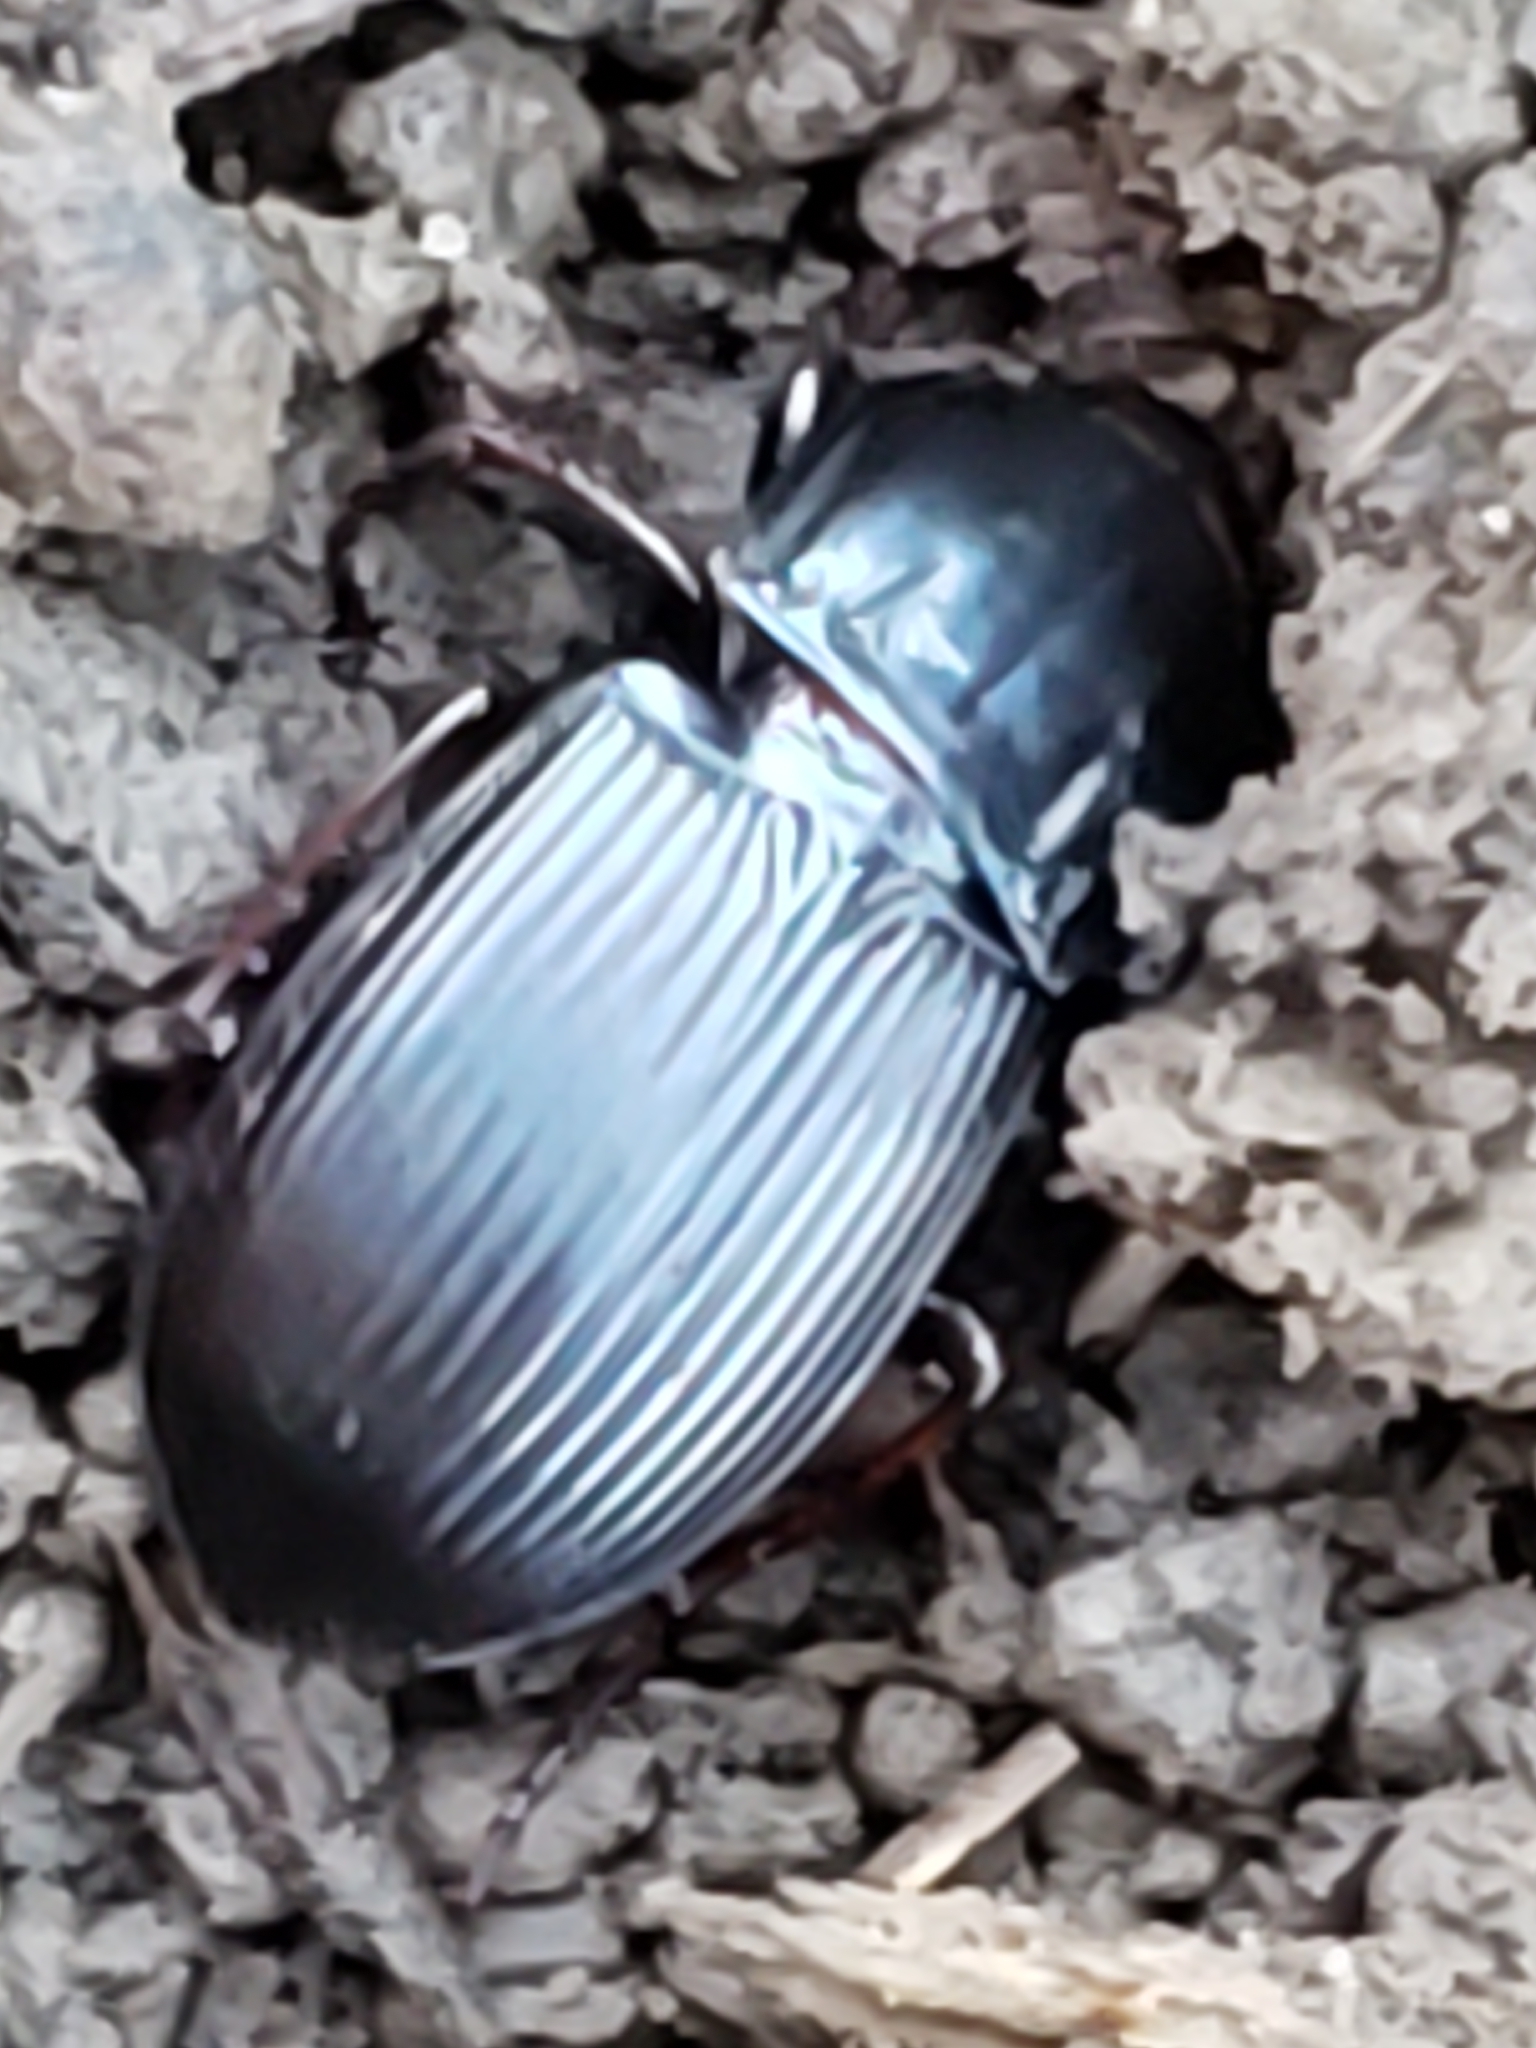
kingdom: Animalia
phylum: Arthropoda
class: Insecta
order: Coleoptera
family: Carabidae
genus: Abacidus
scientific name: Abacidus
